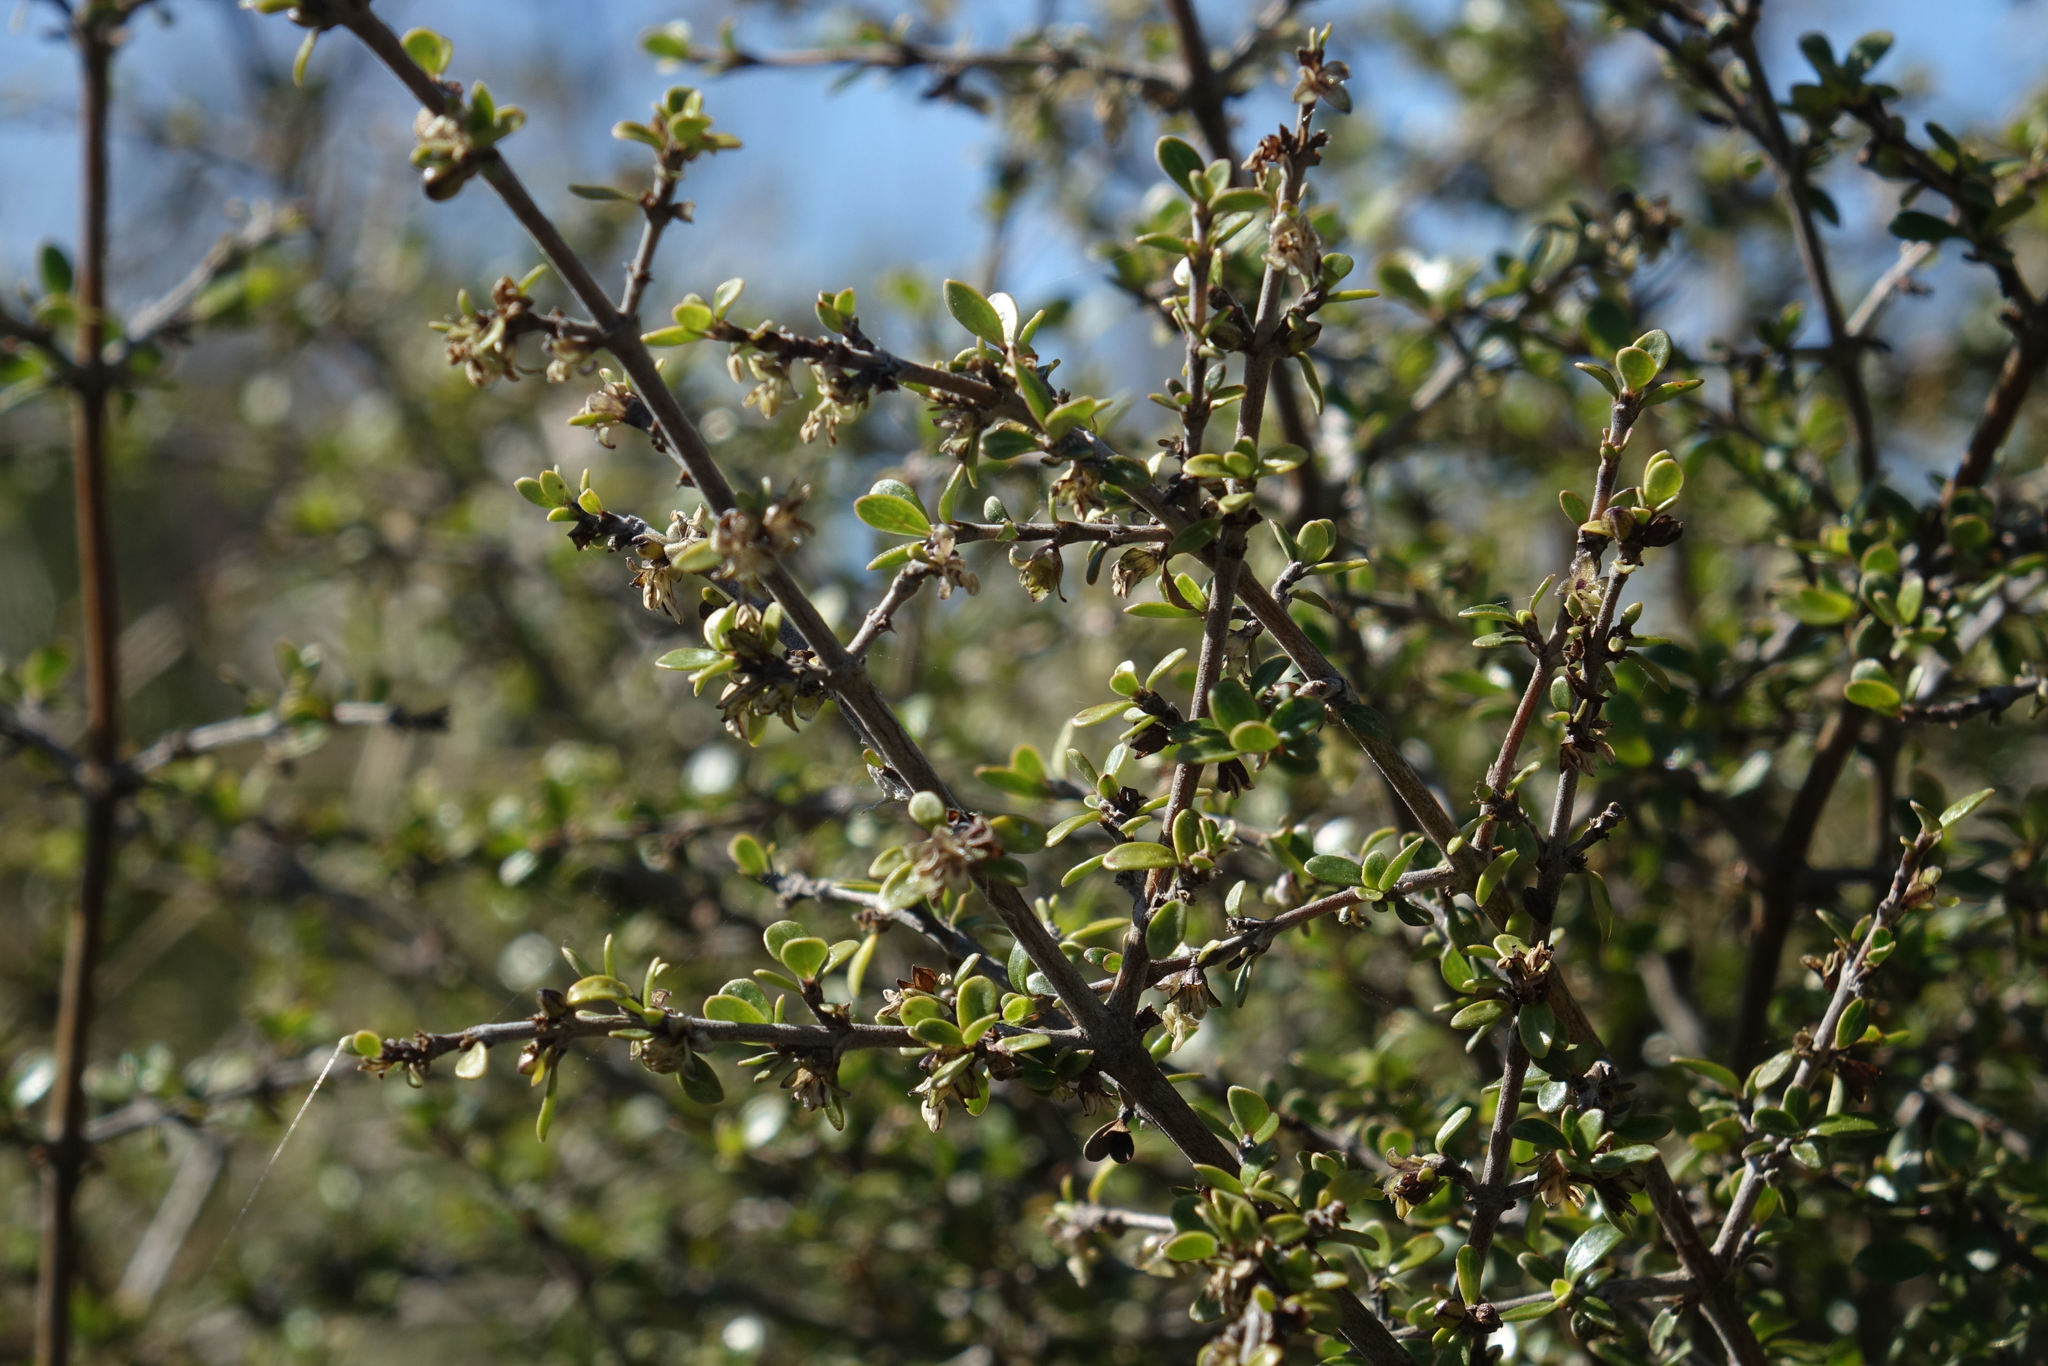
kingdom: Plantae
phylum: Tracheophyta
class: Magnoliopsida
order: Gentianales
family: Rubiaceae
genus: Coprosma
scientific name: Coprosma dumosa
